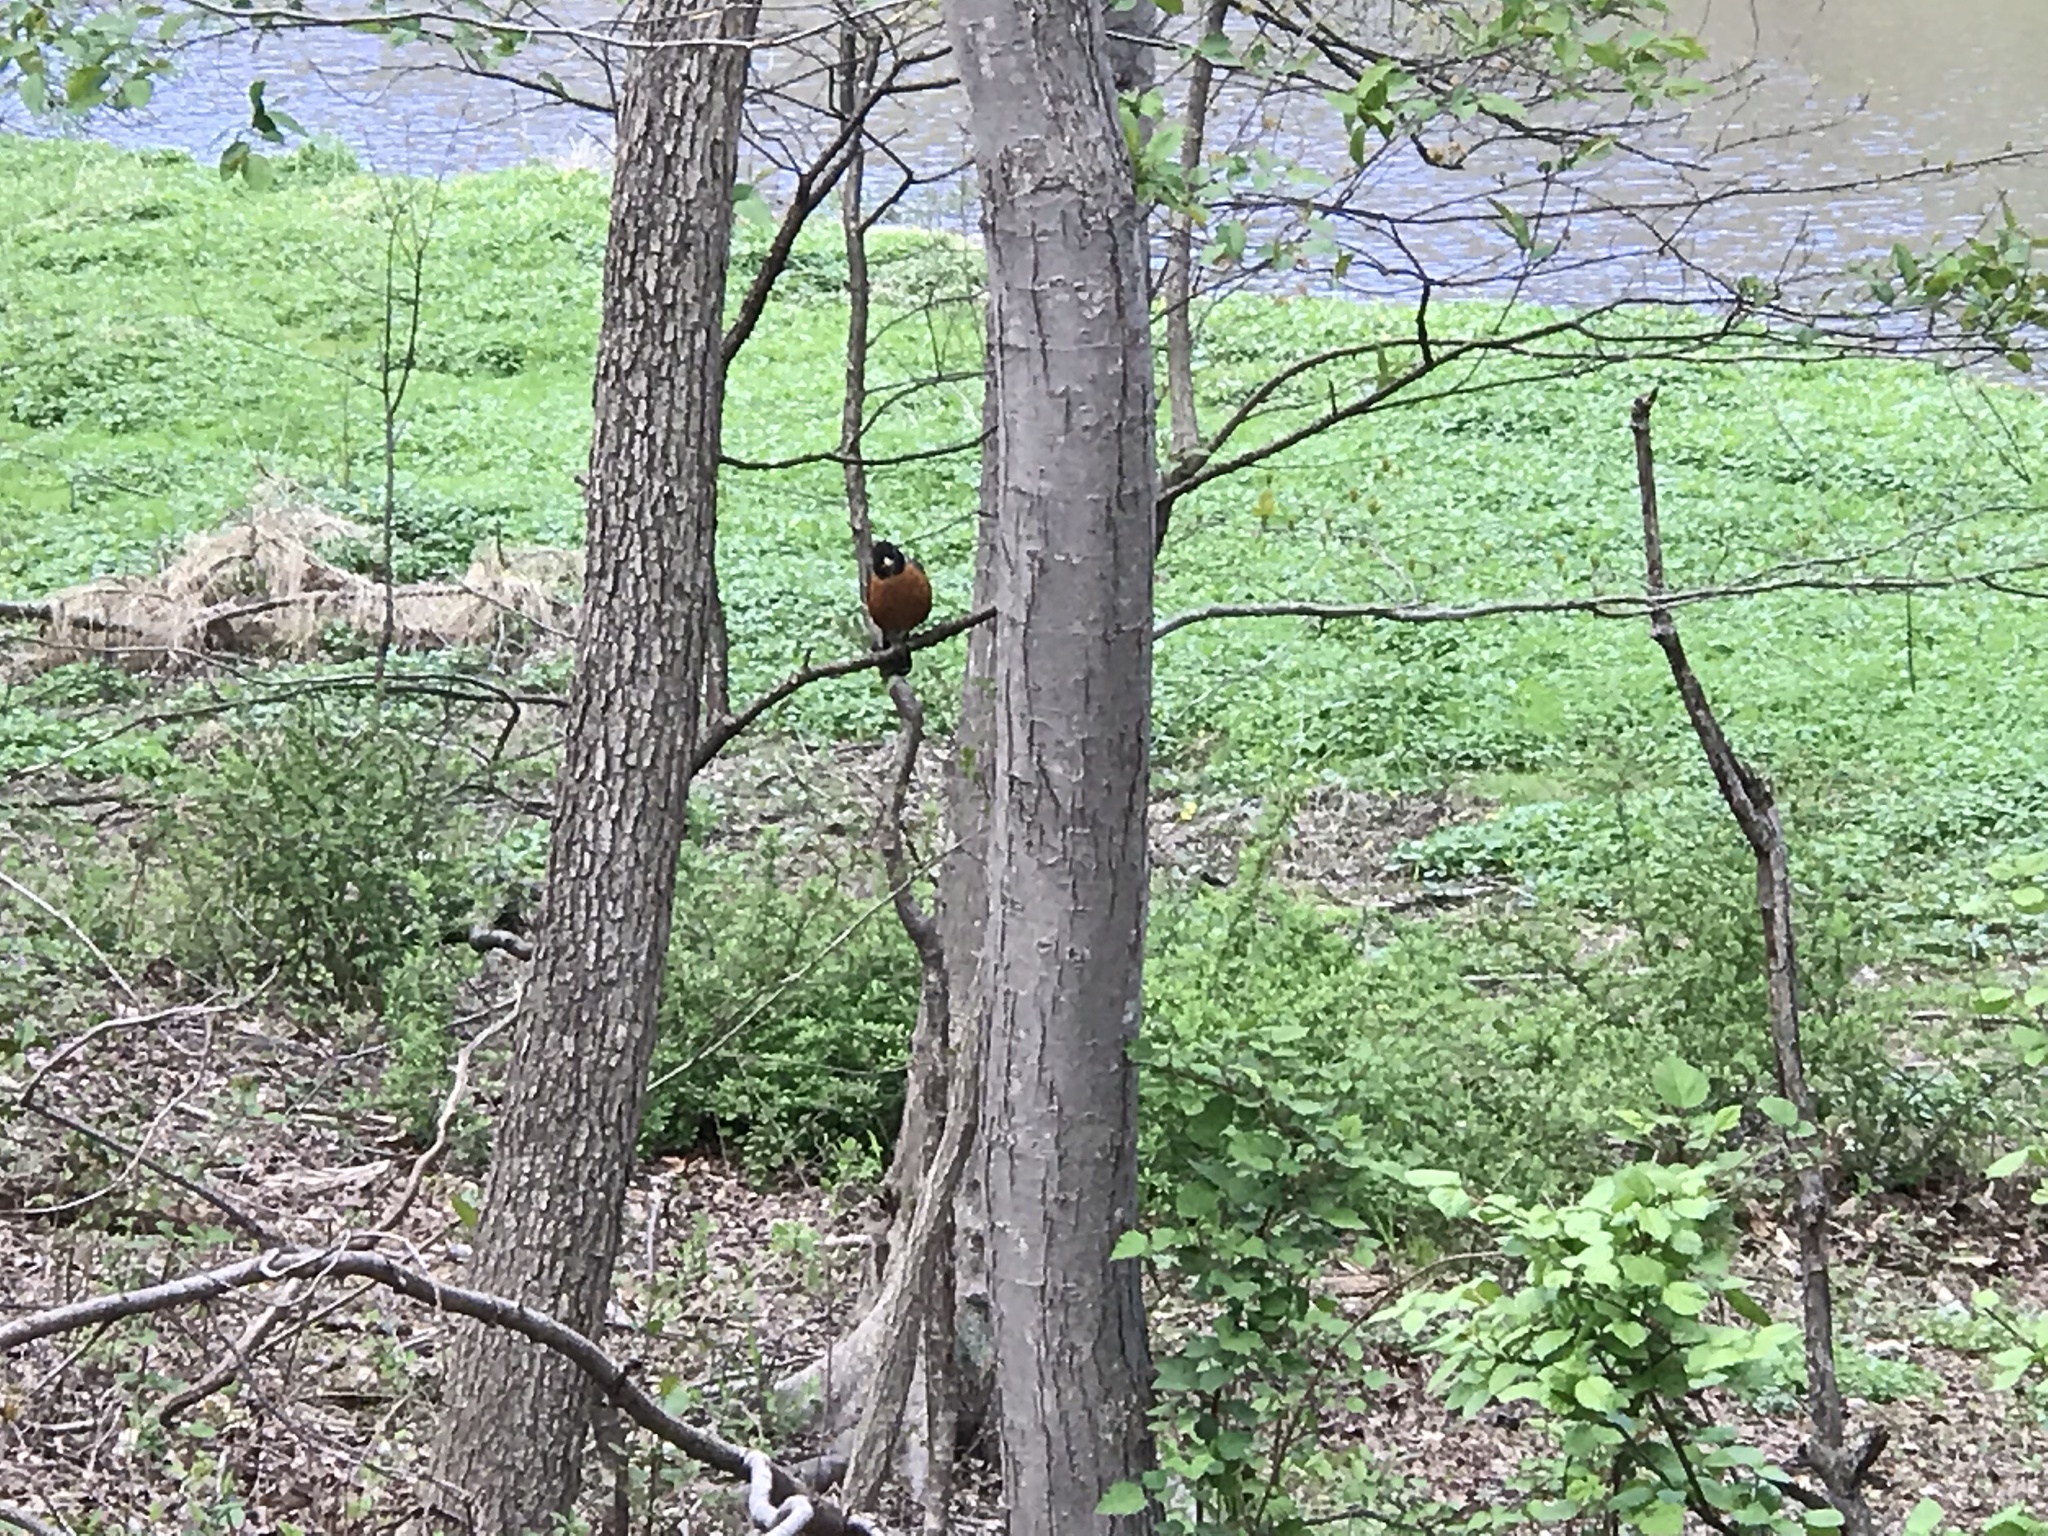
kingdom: Plantae
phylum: Tracheophyta
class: Magnoliopsida
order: Ranunculales
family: Ranunculaceae
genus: Ficaria
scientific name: Ficaria verna
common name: Lesser celandine
